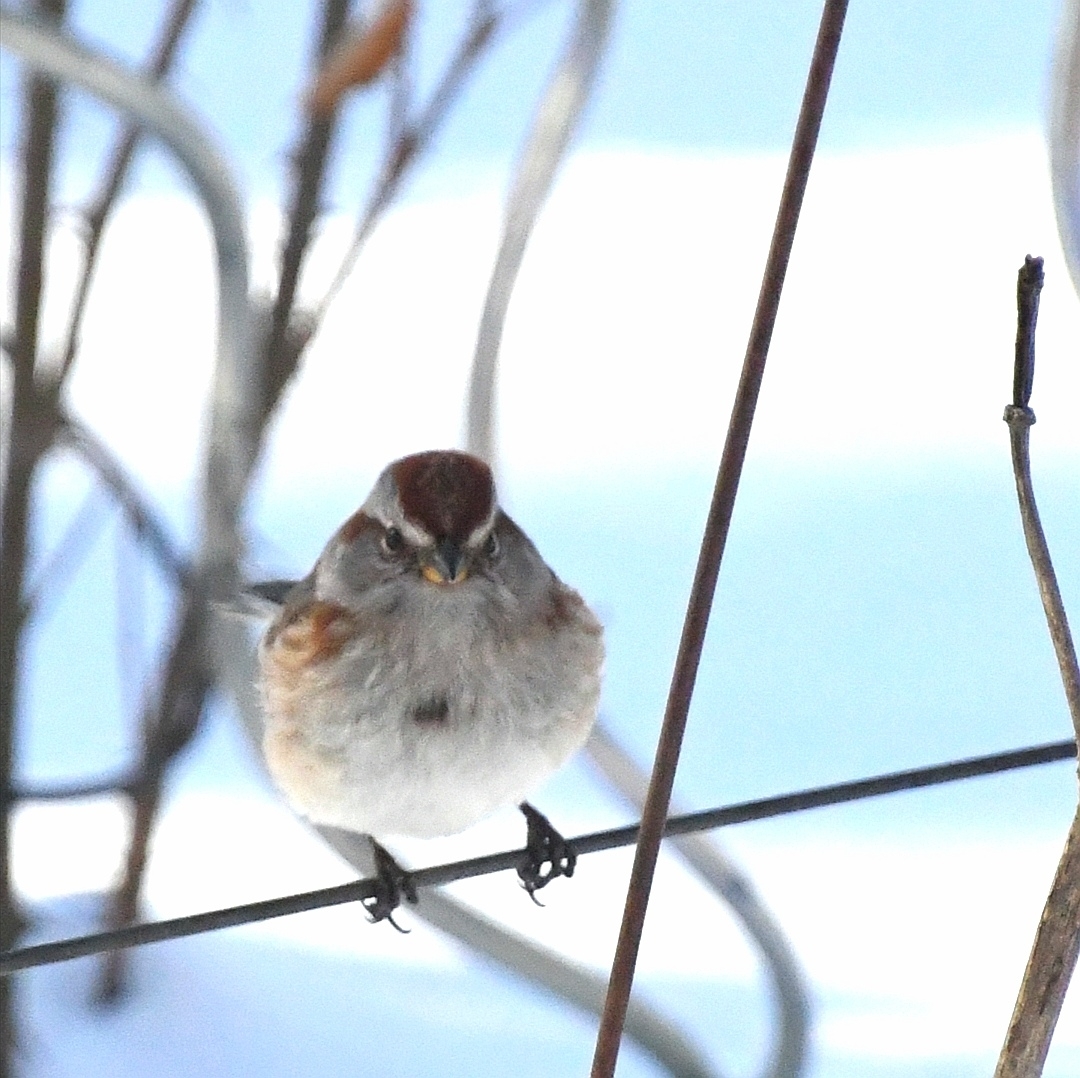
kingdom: Animalia
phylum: Chordata
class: Aves
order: Passeriformes
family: Passerellidae
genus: Spizelloides
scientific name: Spizelloides arborea
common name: American tree sparrow
